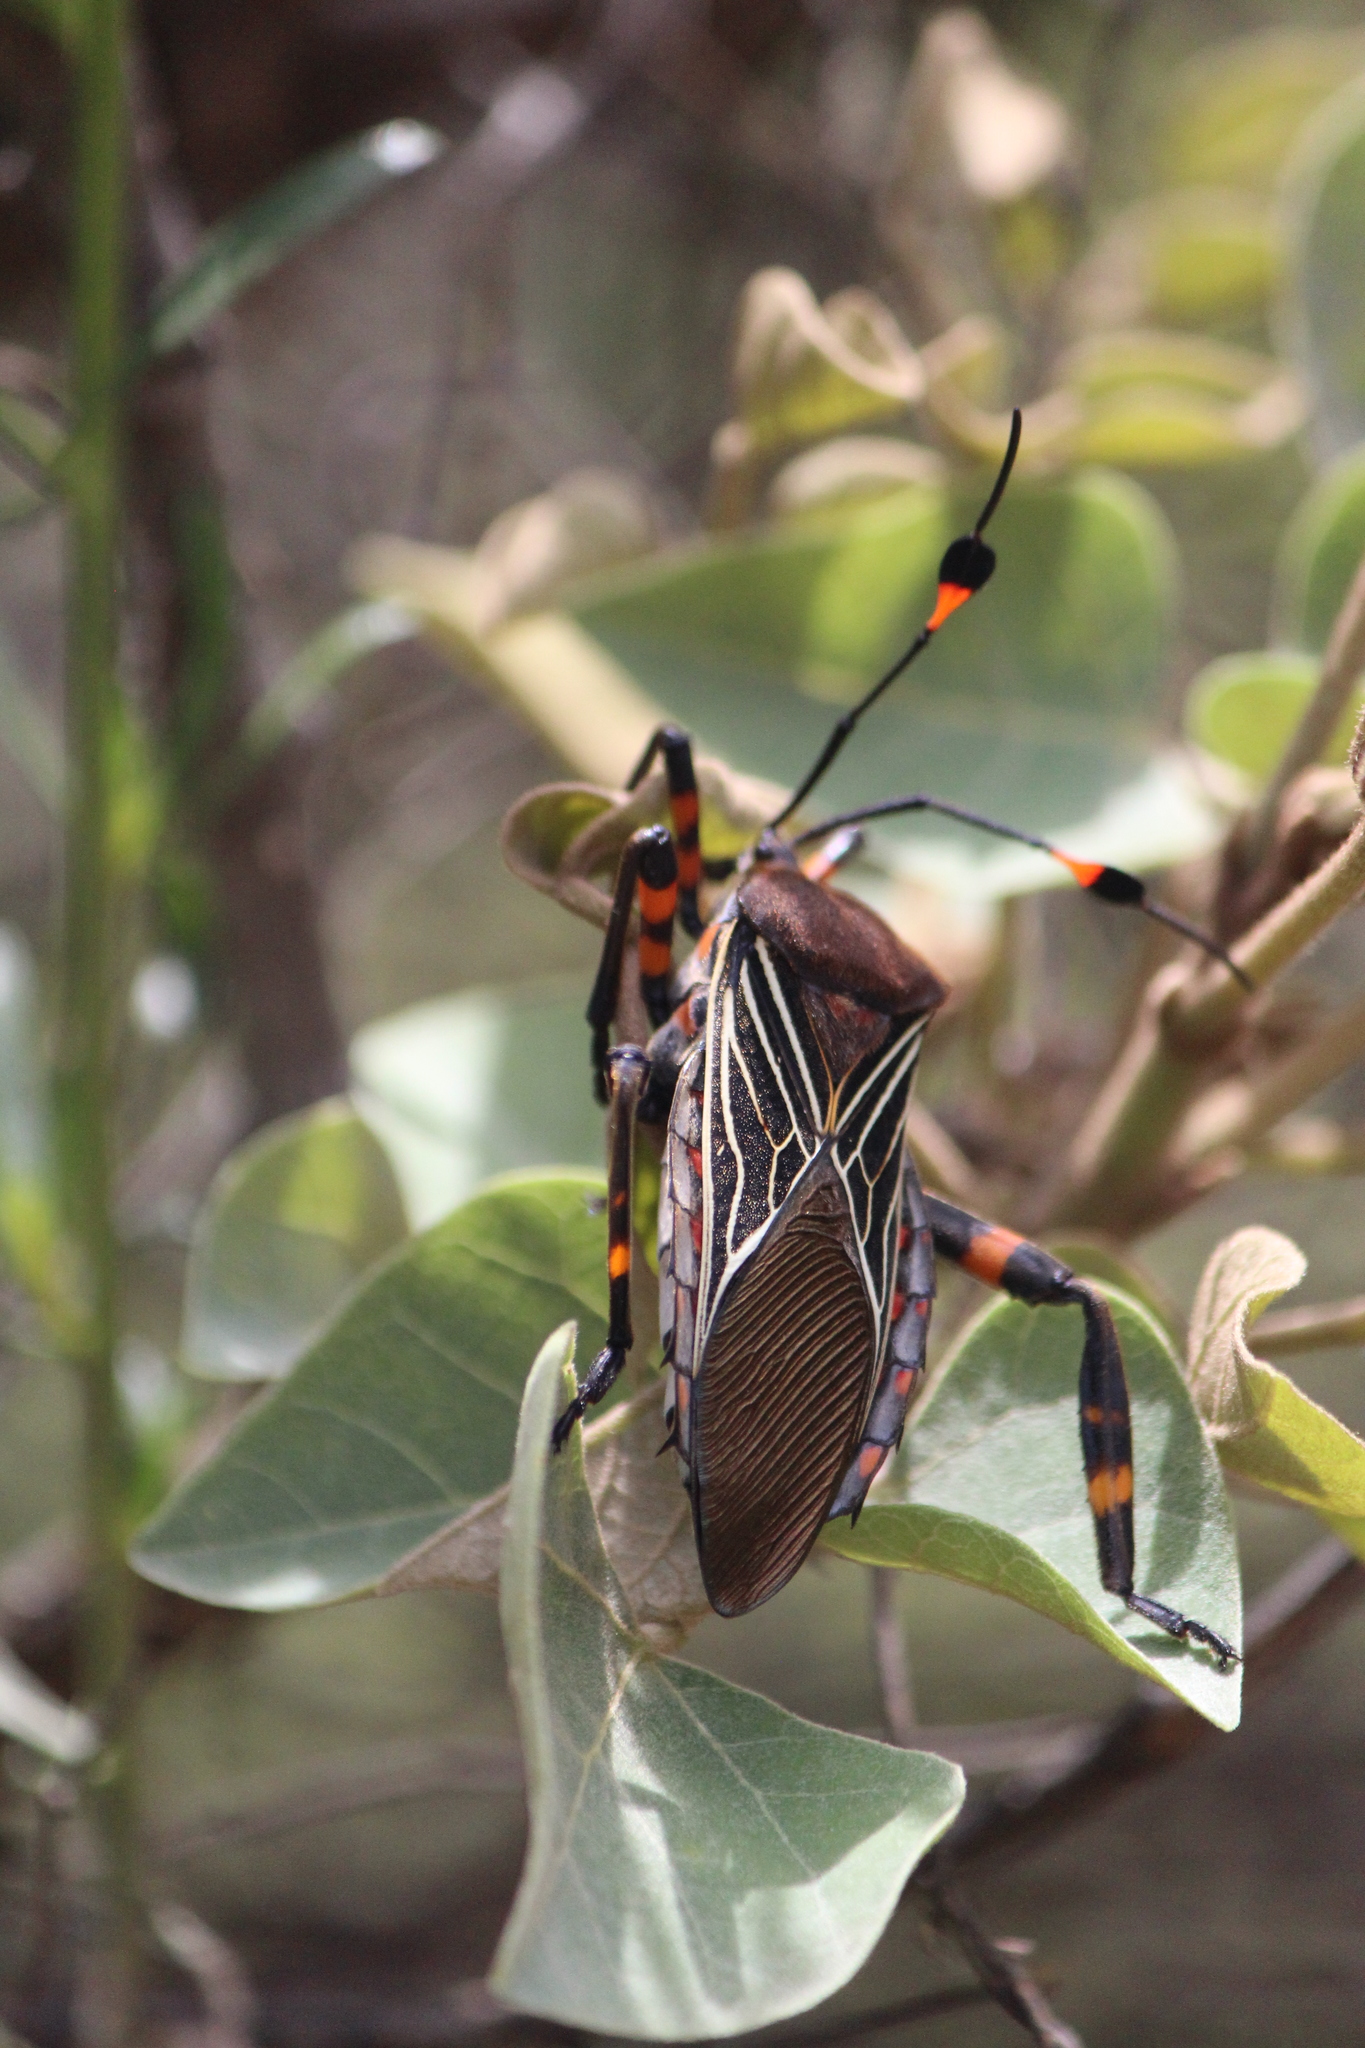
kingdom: Animalia
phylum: Arthropoda
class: Insecta
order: Hemiptera
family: Coreidae
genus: Thasus
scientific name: Thasus
